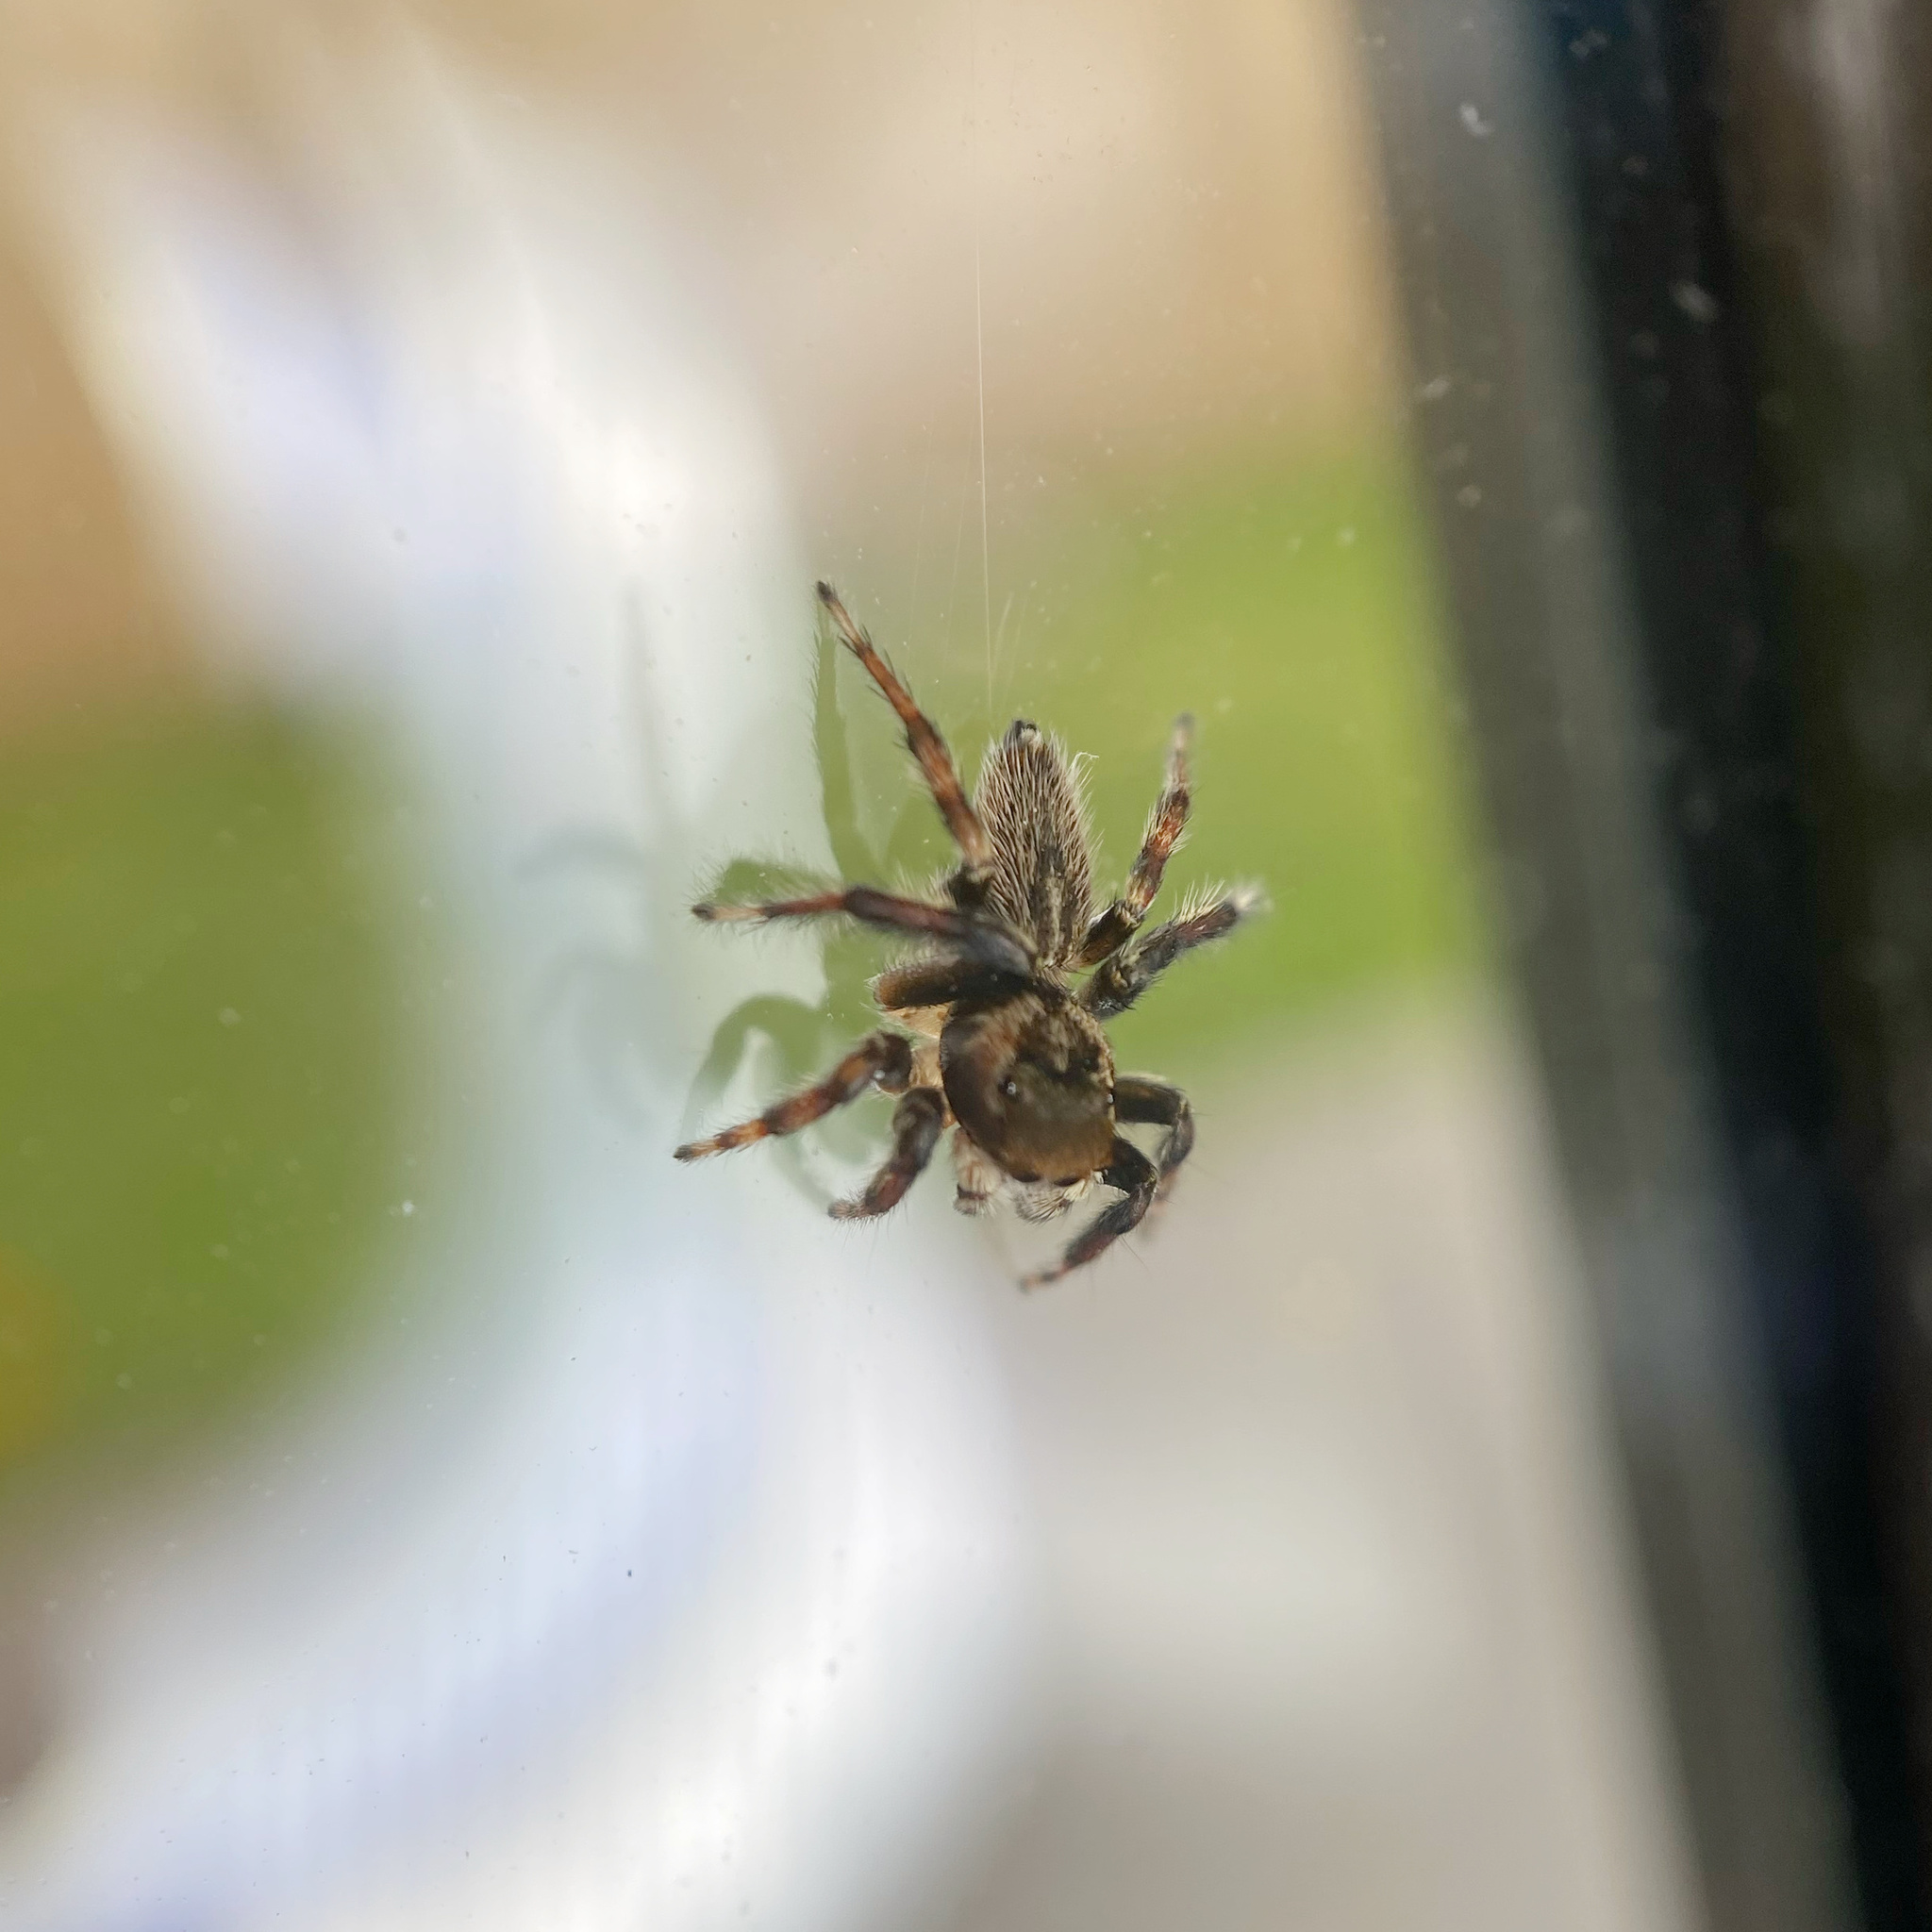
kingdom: Animalia
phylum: Arthropoda
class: Arachnida
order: Araneae
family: Salticidae
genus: Maratus
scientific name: Maratus griseus
